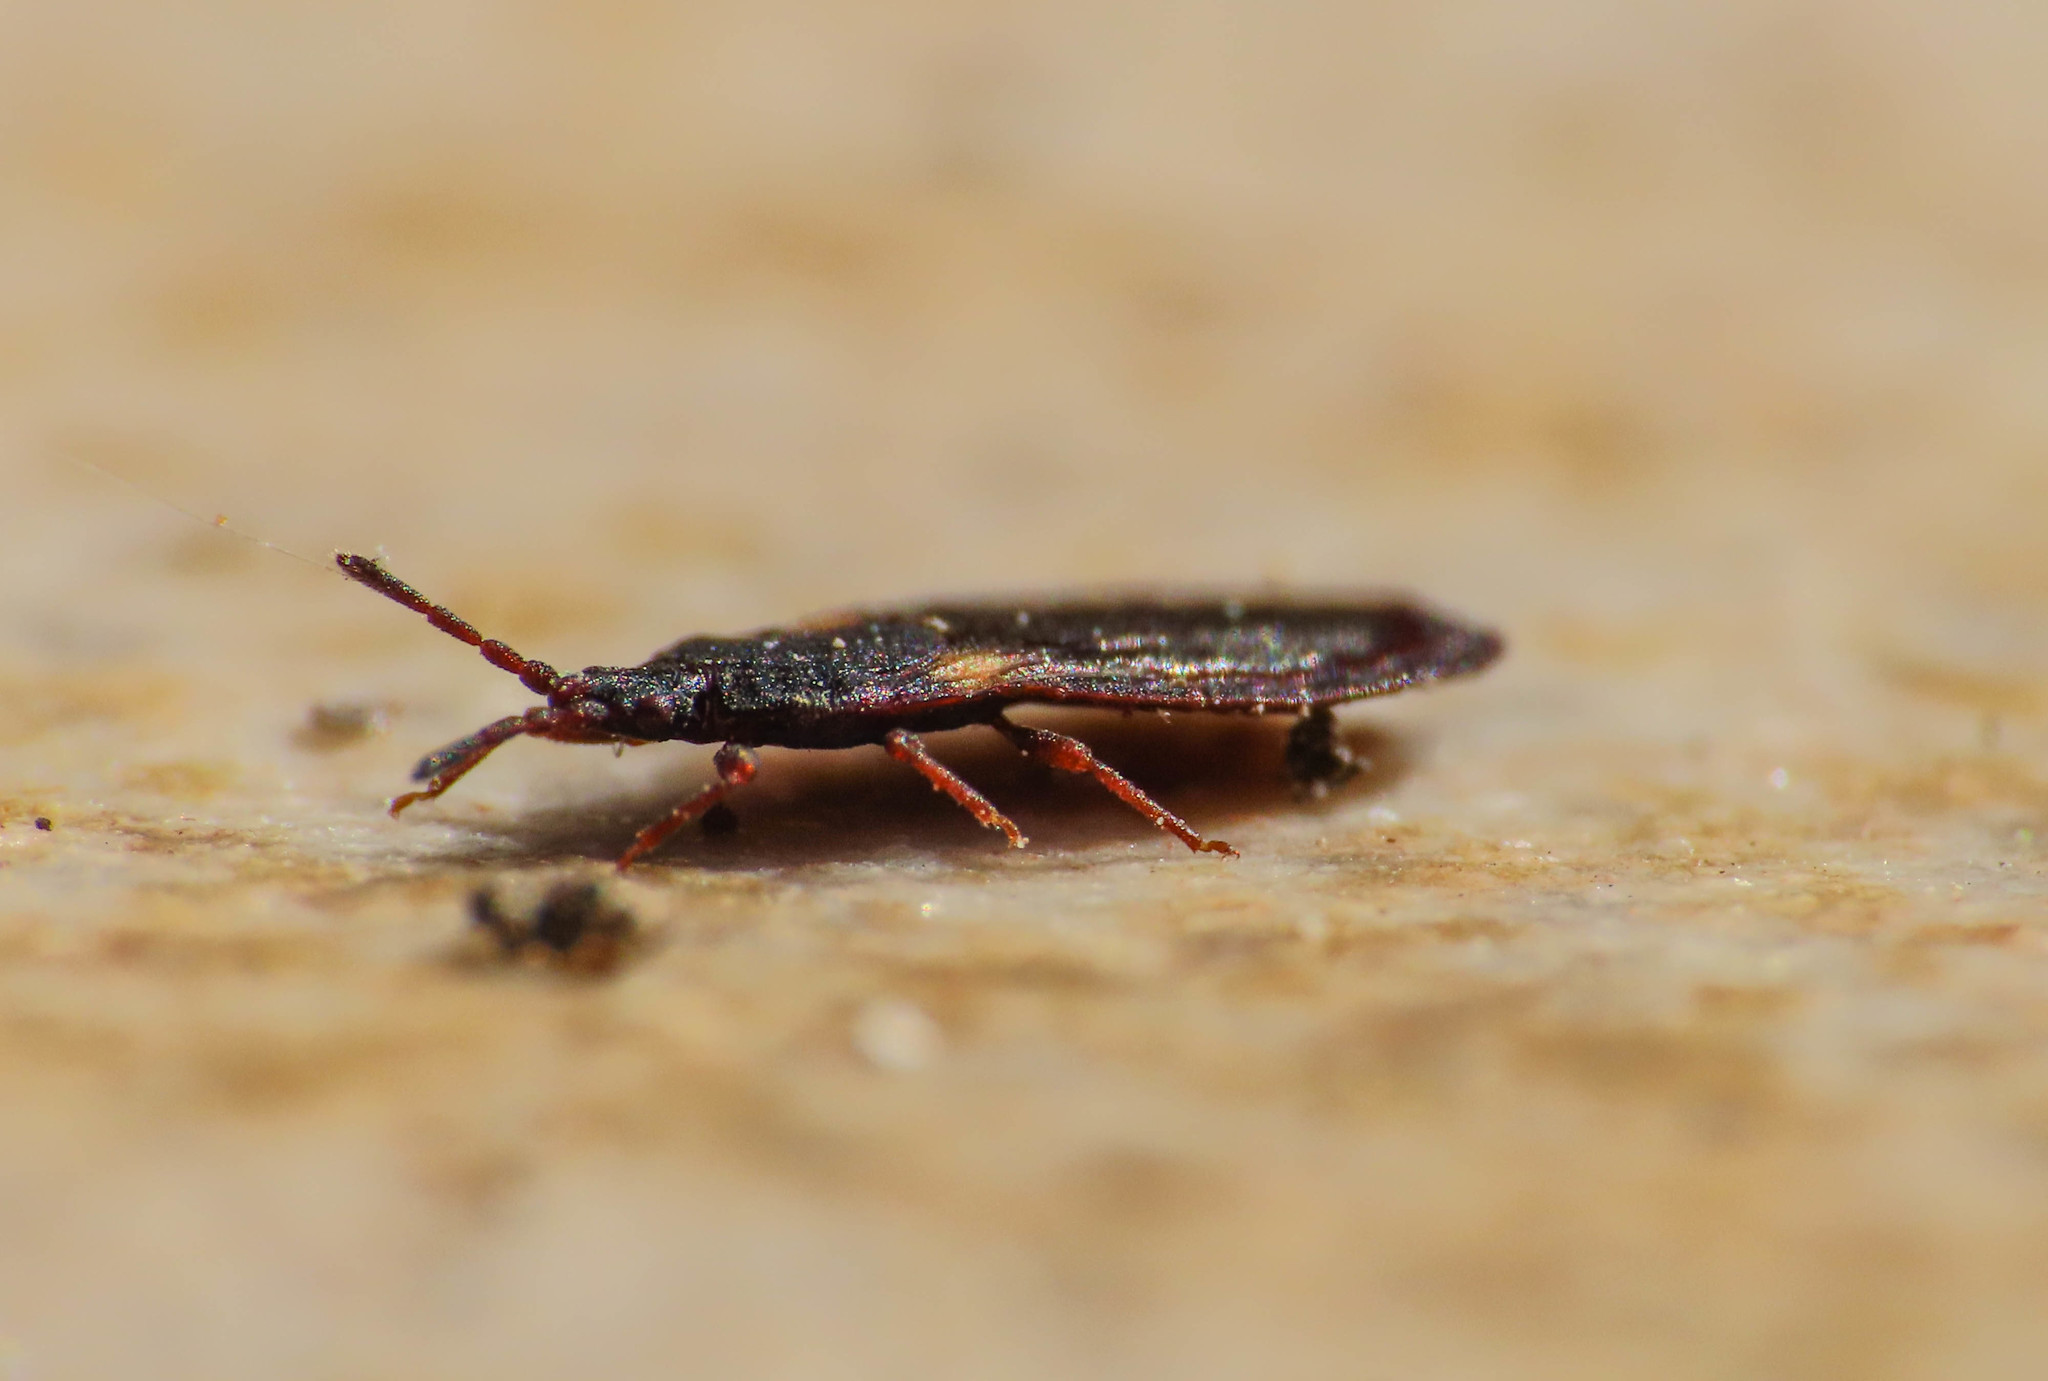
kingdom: Animalia
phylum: Arthropoda
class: Insecta
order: Hemiptera
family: Aradidae
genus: Aneurus
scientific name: Aneurus avenius
